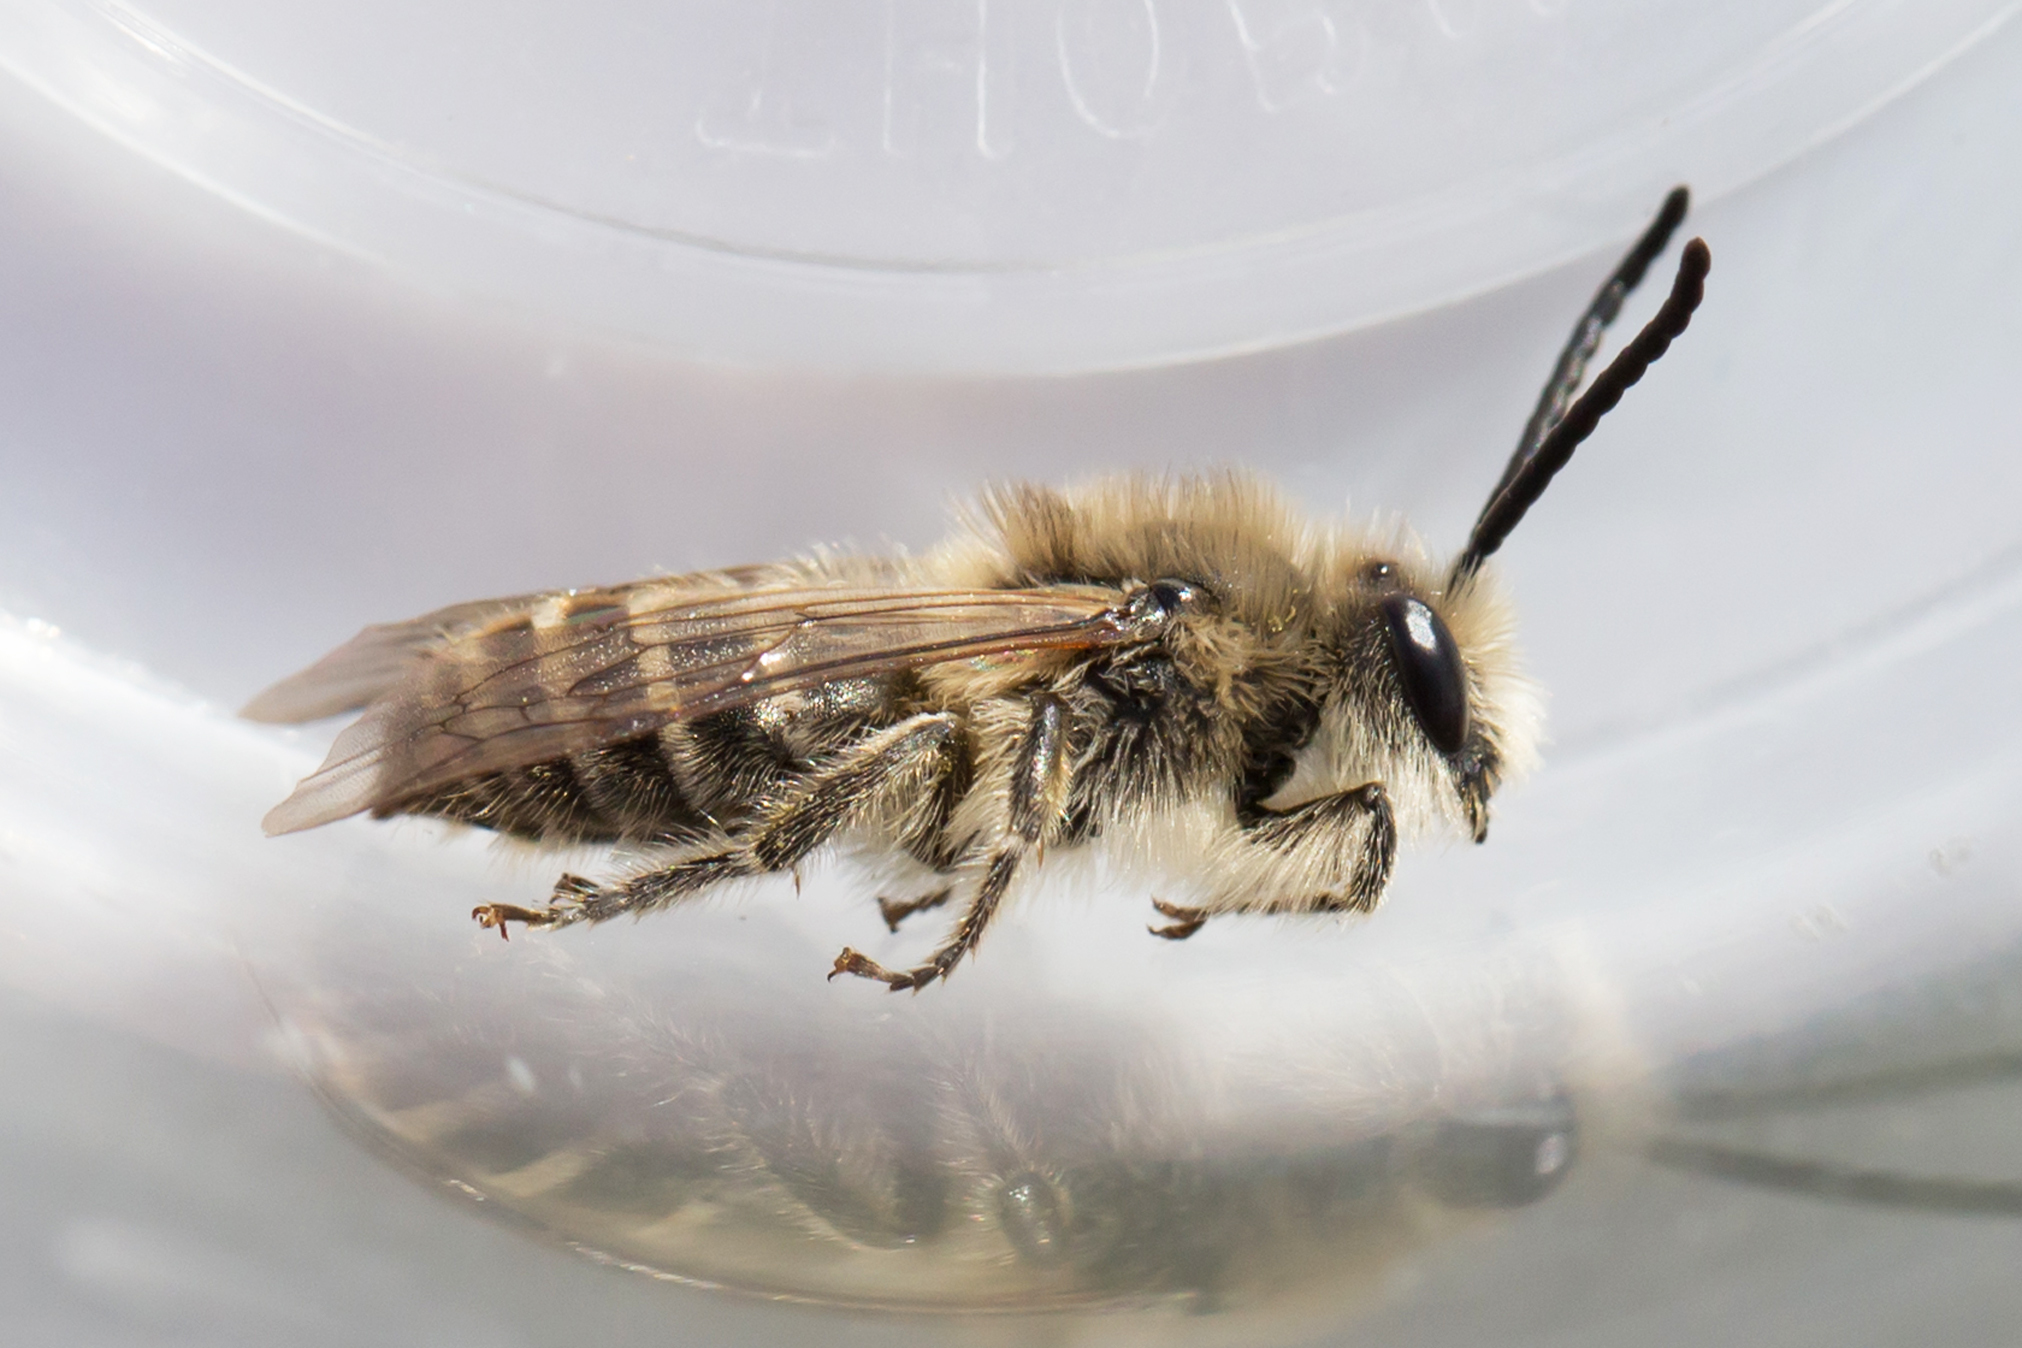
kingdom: Animalia
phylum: Arthropoda
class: Insecta
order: Hymenoptera
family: Colletidae
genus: Colletes
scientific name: Colletes inaequalis
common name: Unequal cellophane bee
